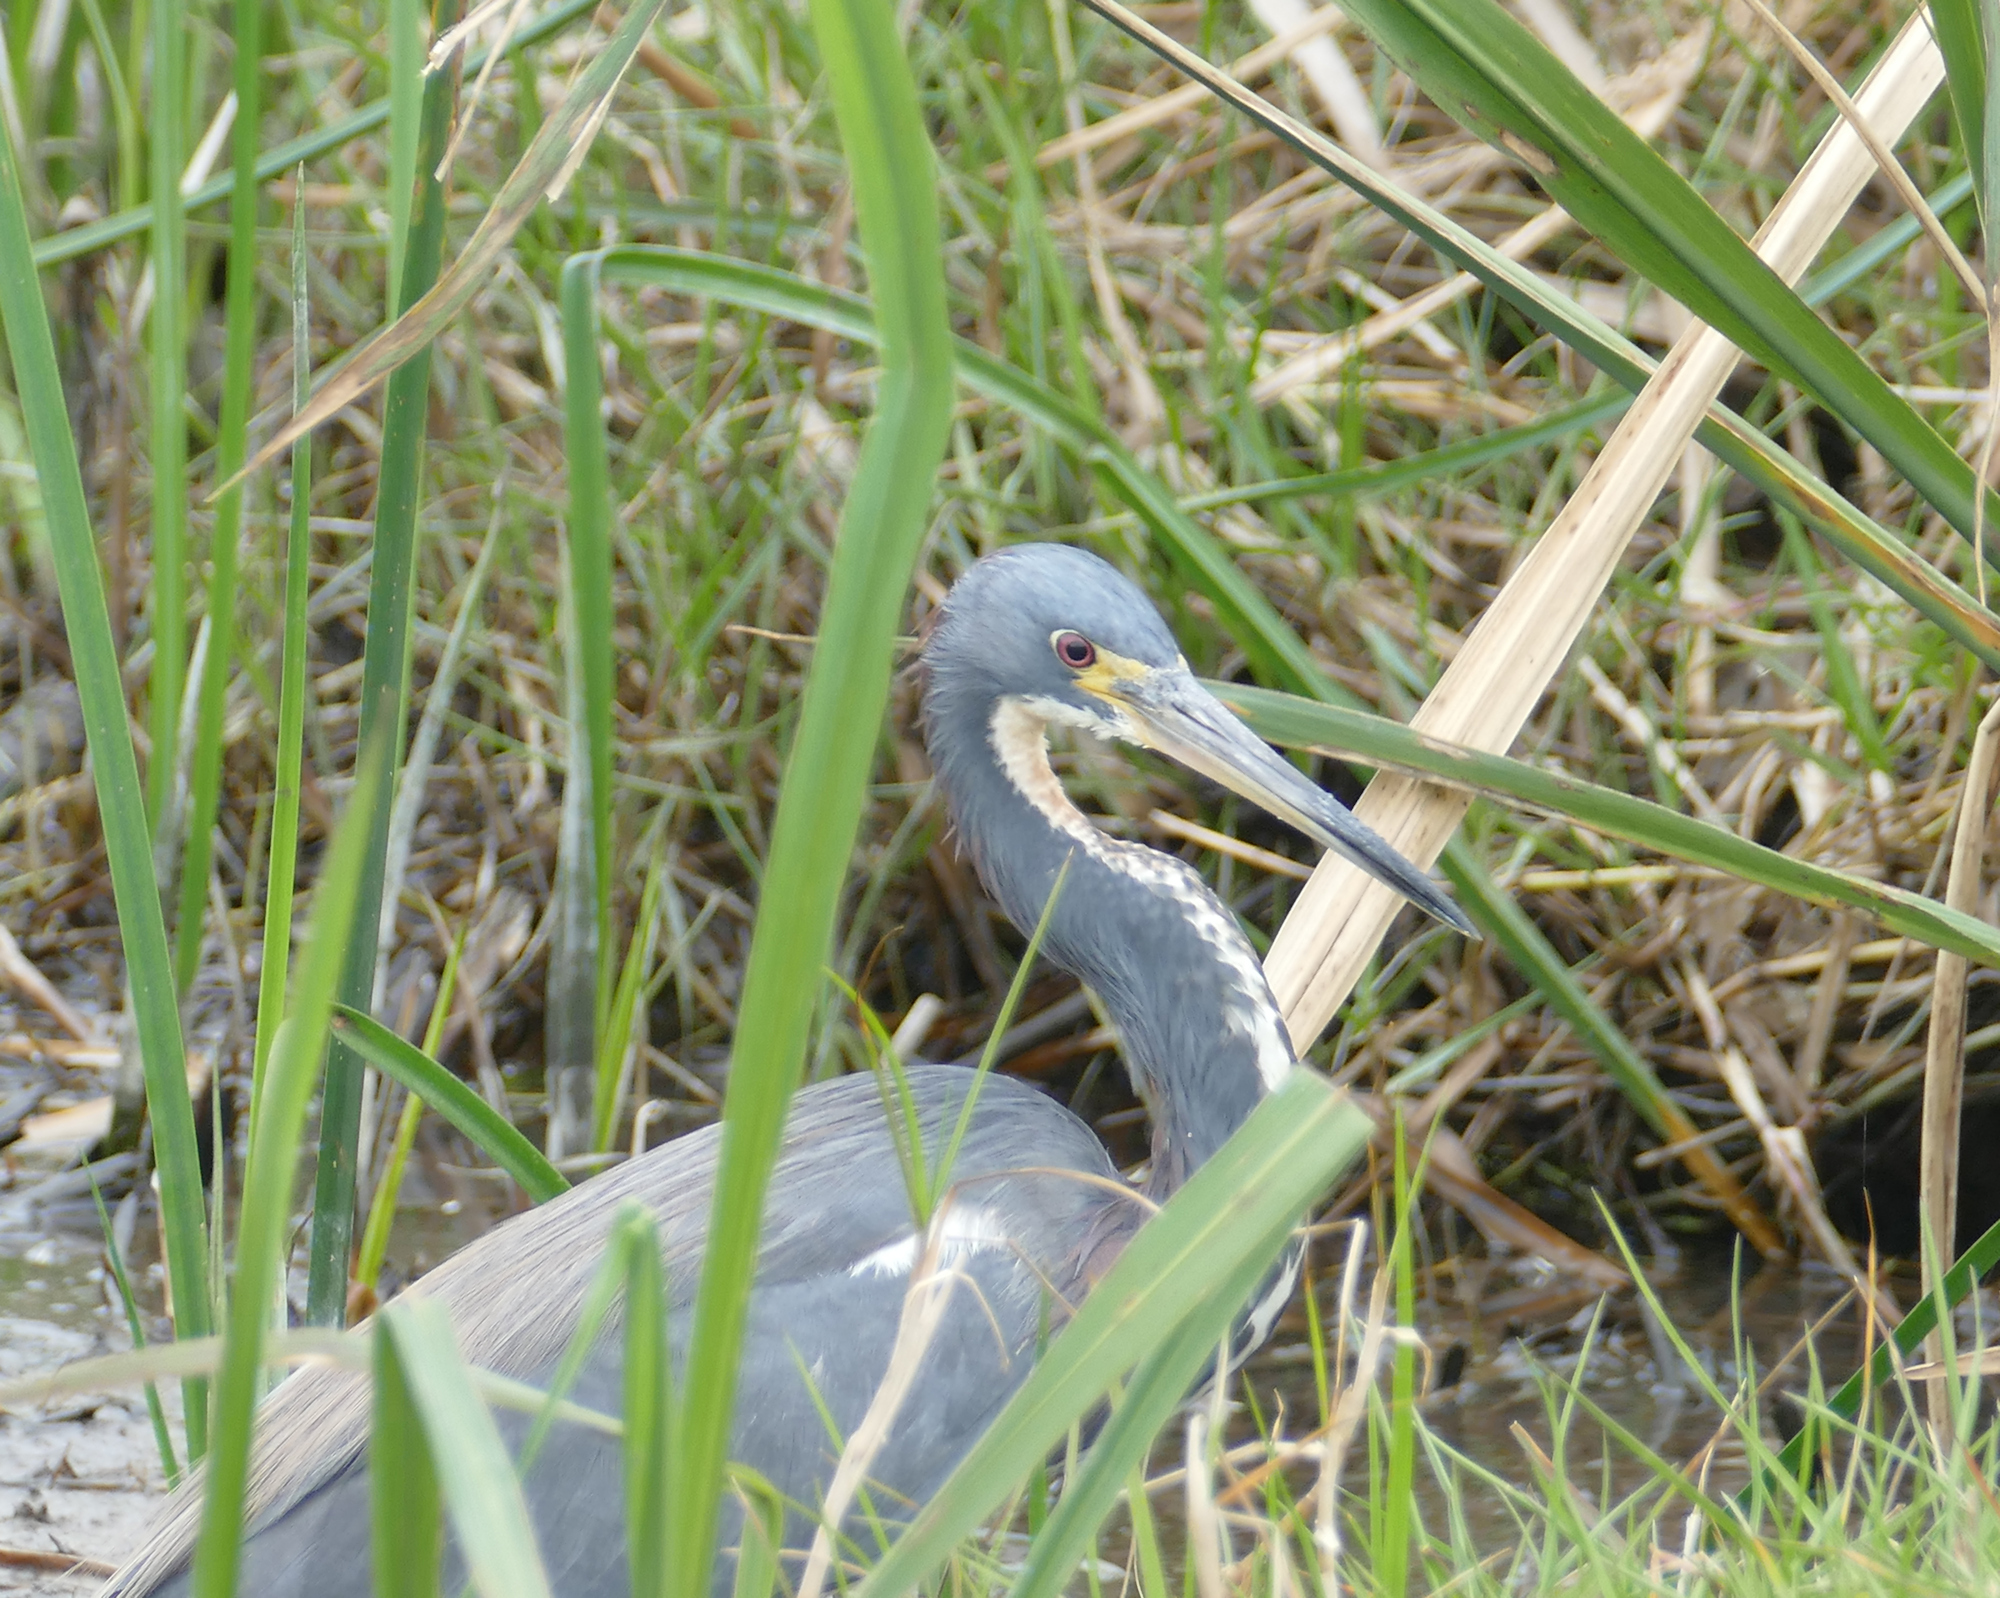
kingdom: Animalia
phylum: Chordata
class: Aves
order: Pelecaniformes
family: Ardeidae
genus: Egretta
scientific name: Egretta tricolor
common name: Tricolored heron
